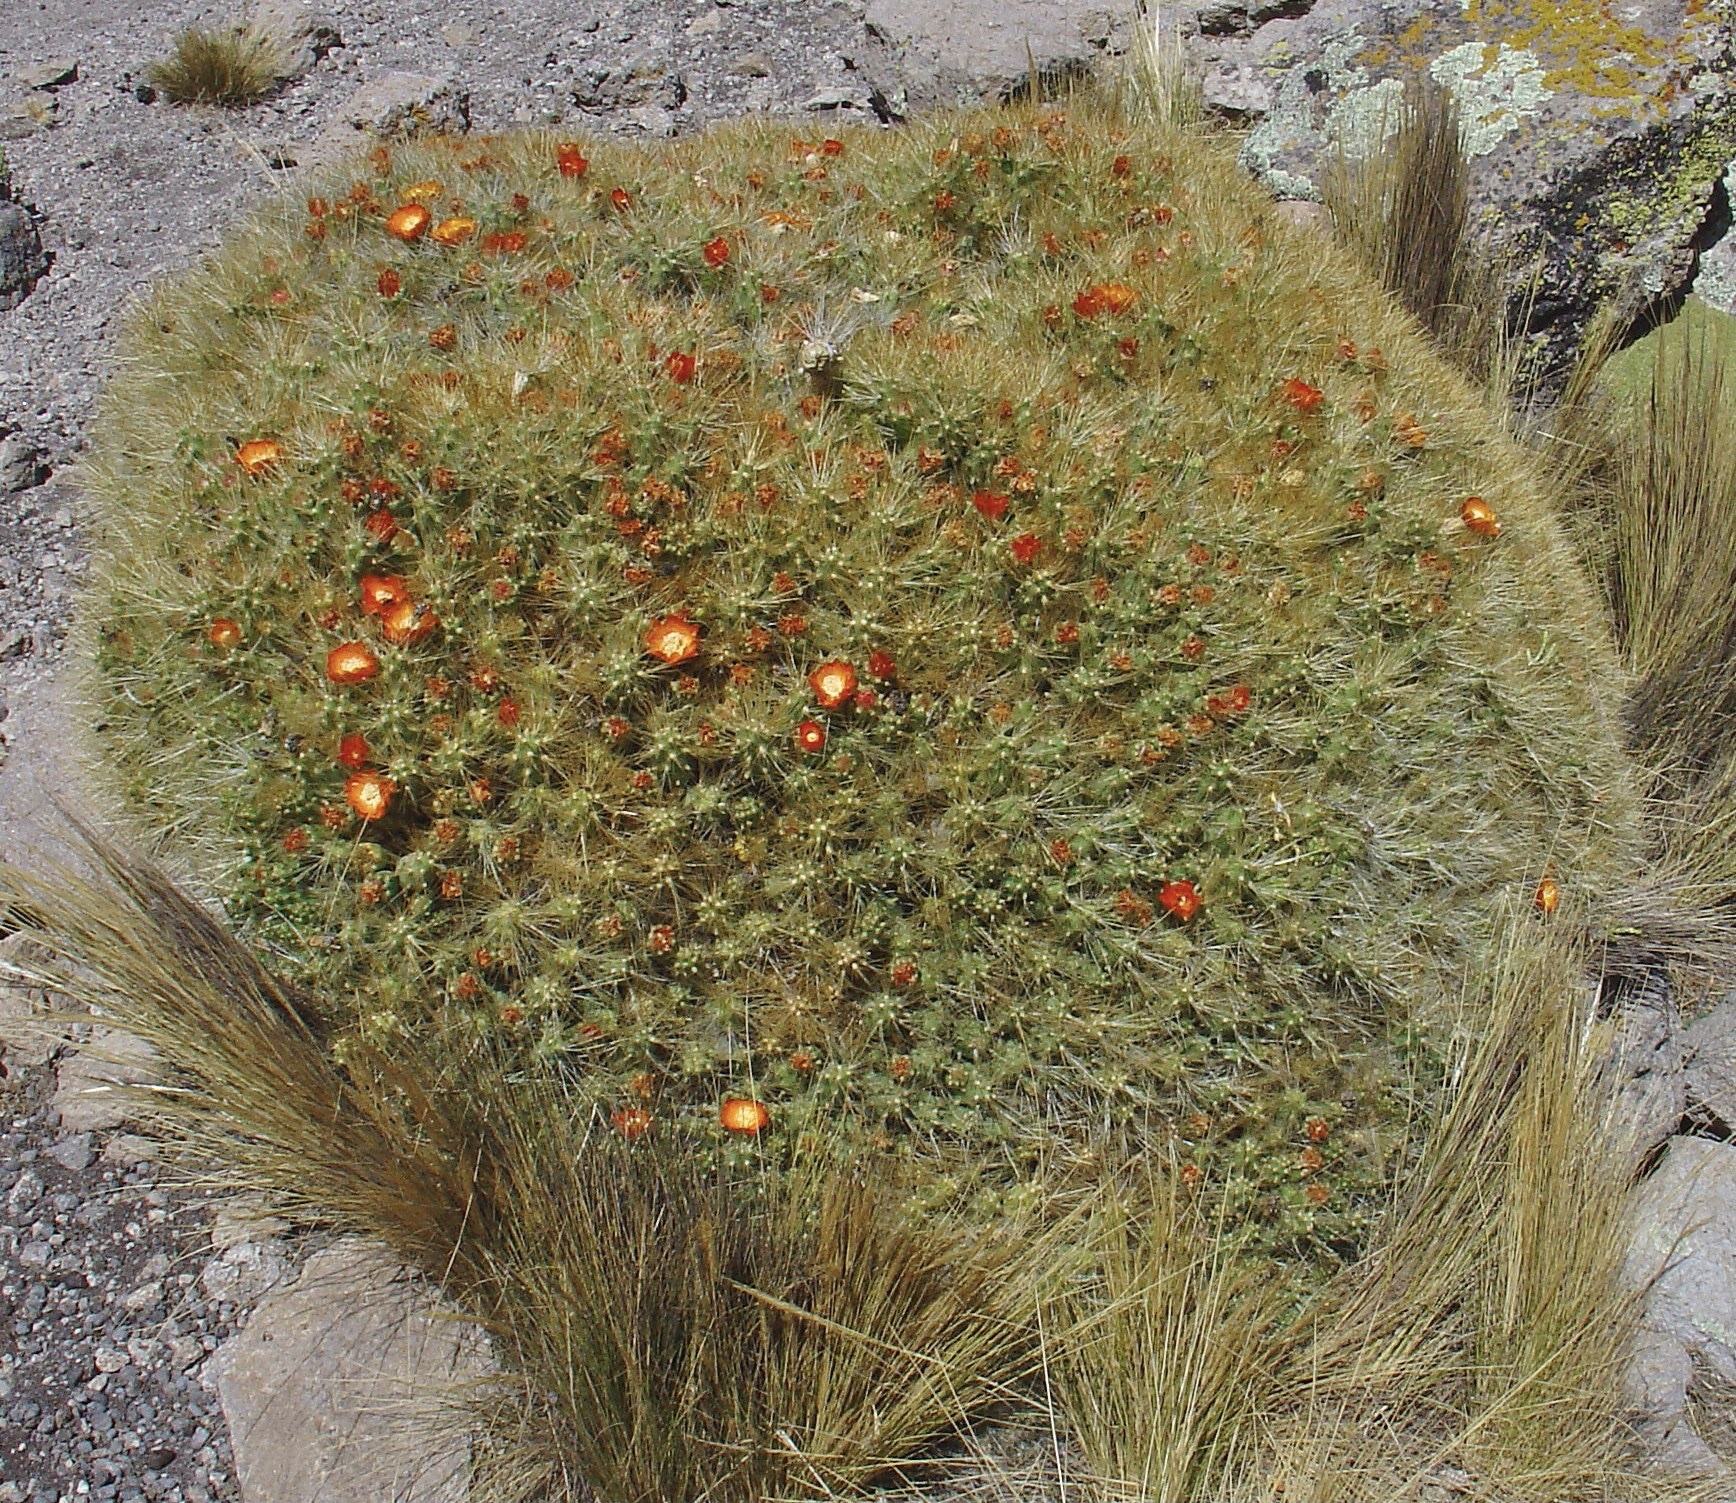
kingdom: Plantae
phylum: Tracheophyta
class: Magnoliopsida
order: Caryophyllales
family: Cactaceae
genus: Cumulopuntia
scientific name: Cumulopuntia glomerata
